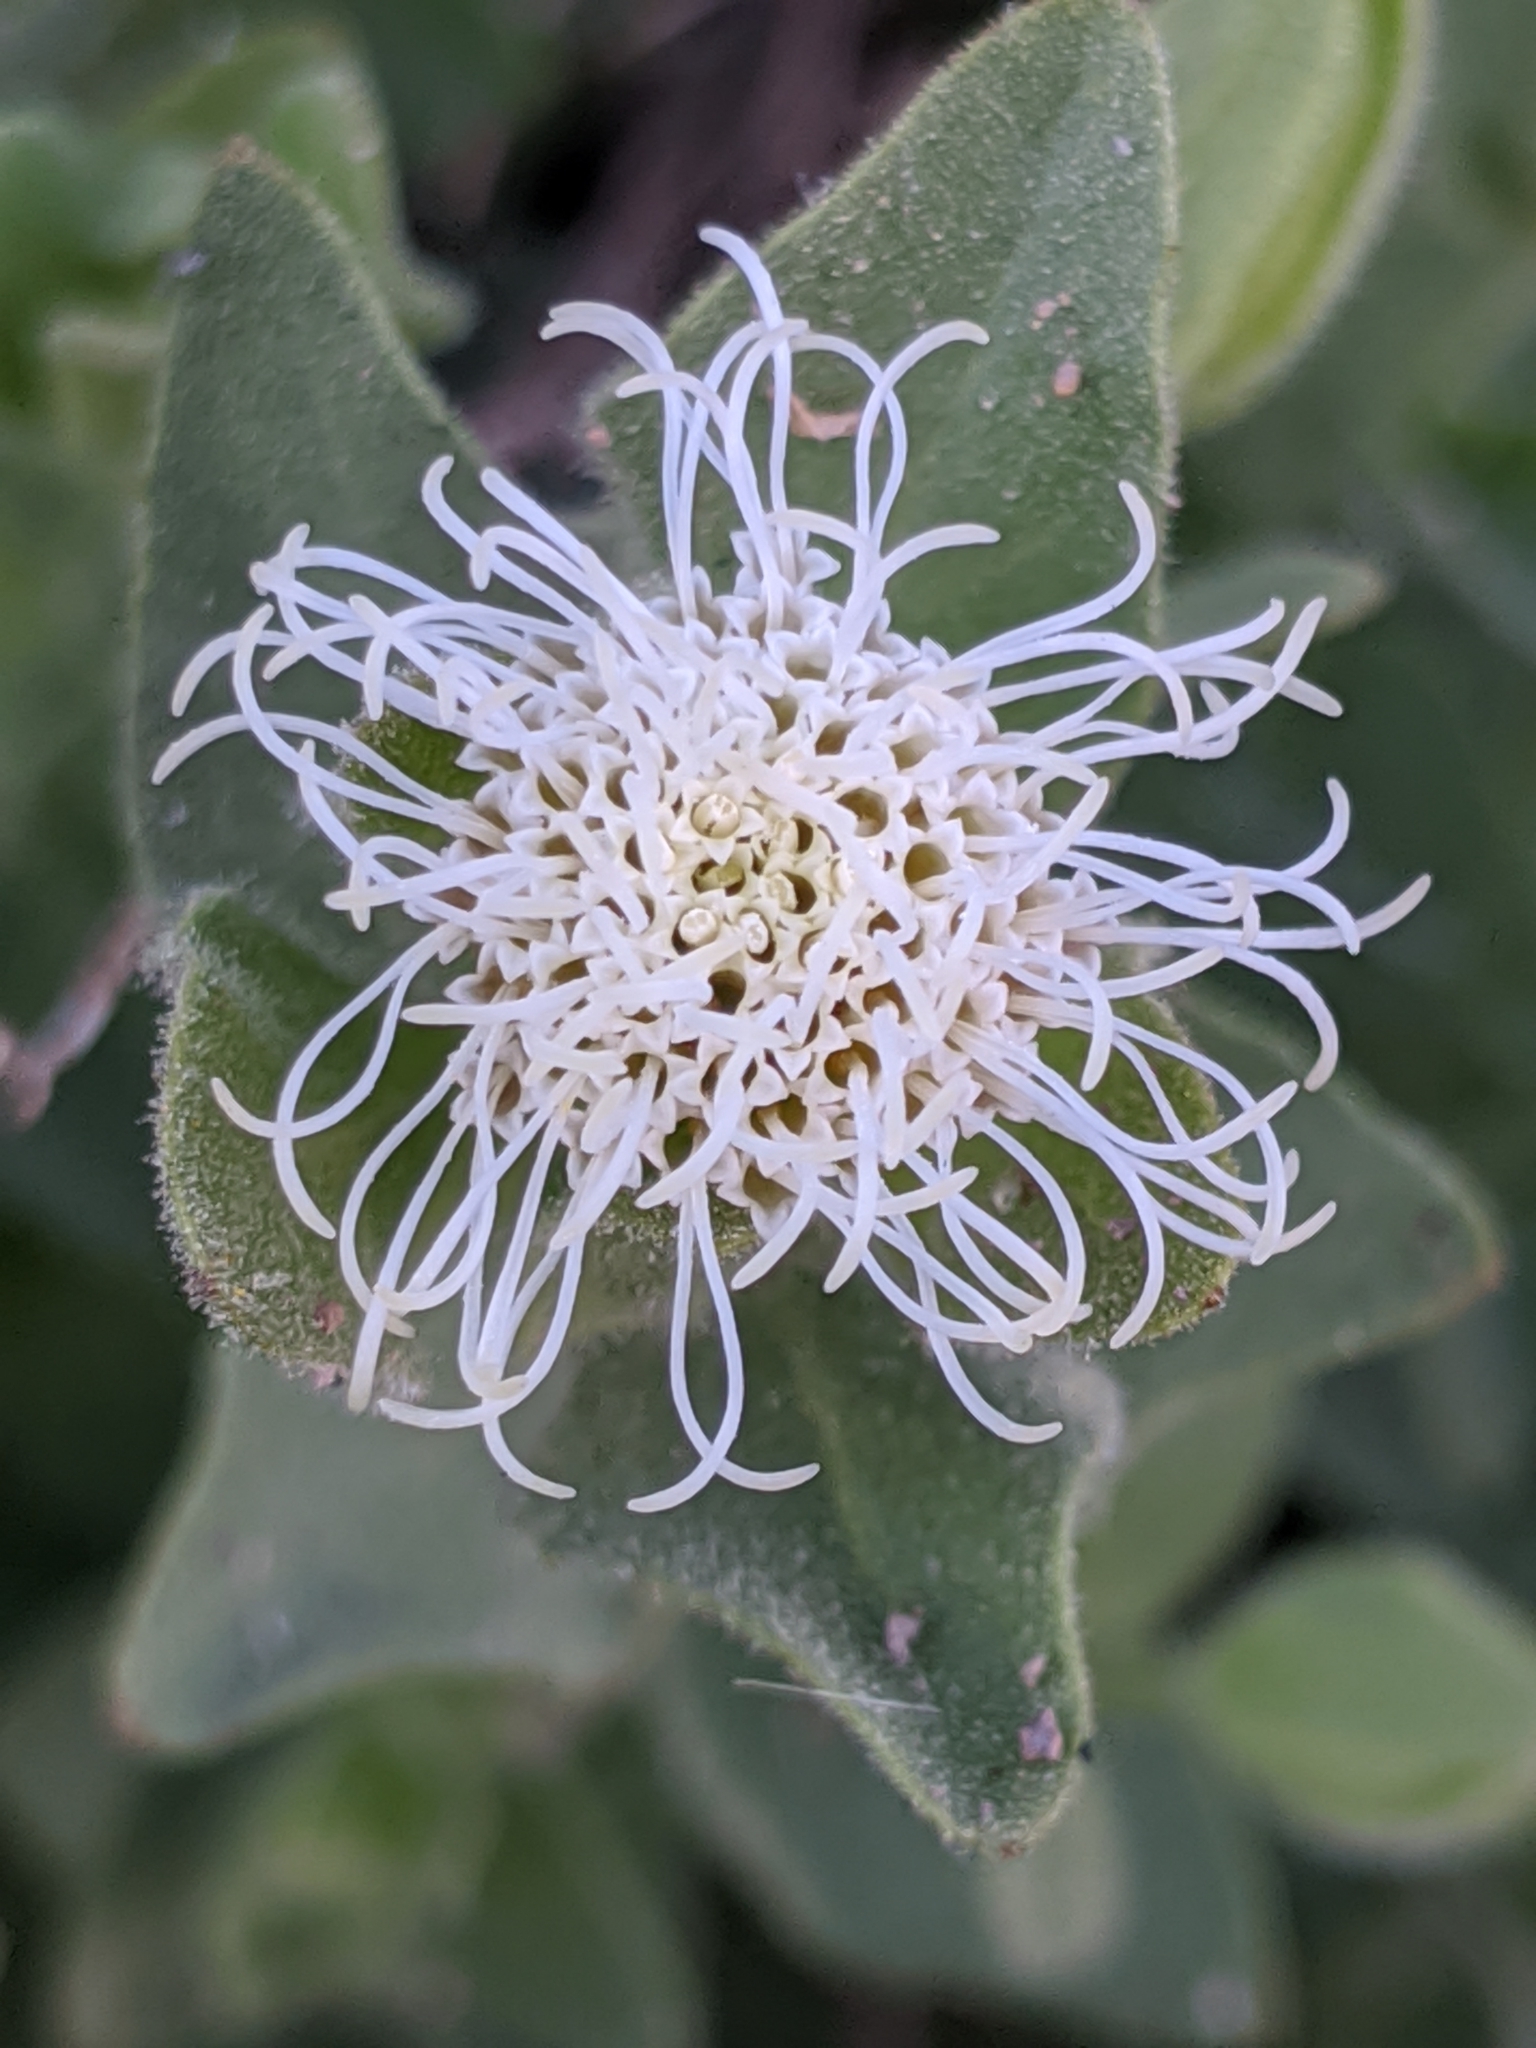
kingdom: Plantae
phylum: Tracheophyta
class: Magnoliopsida
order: Asterales
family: Asteraceae
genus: Brickellia
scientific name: Brickellia greenei
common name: Greene's brickellbush
